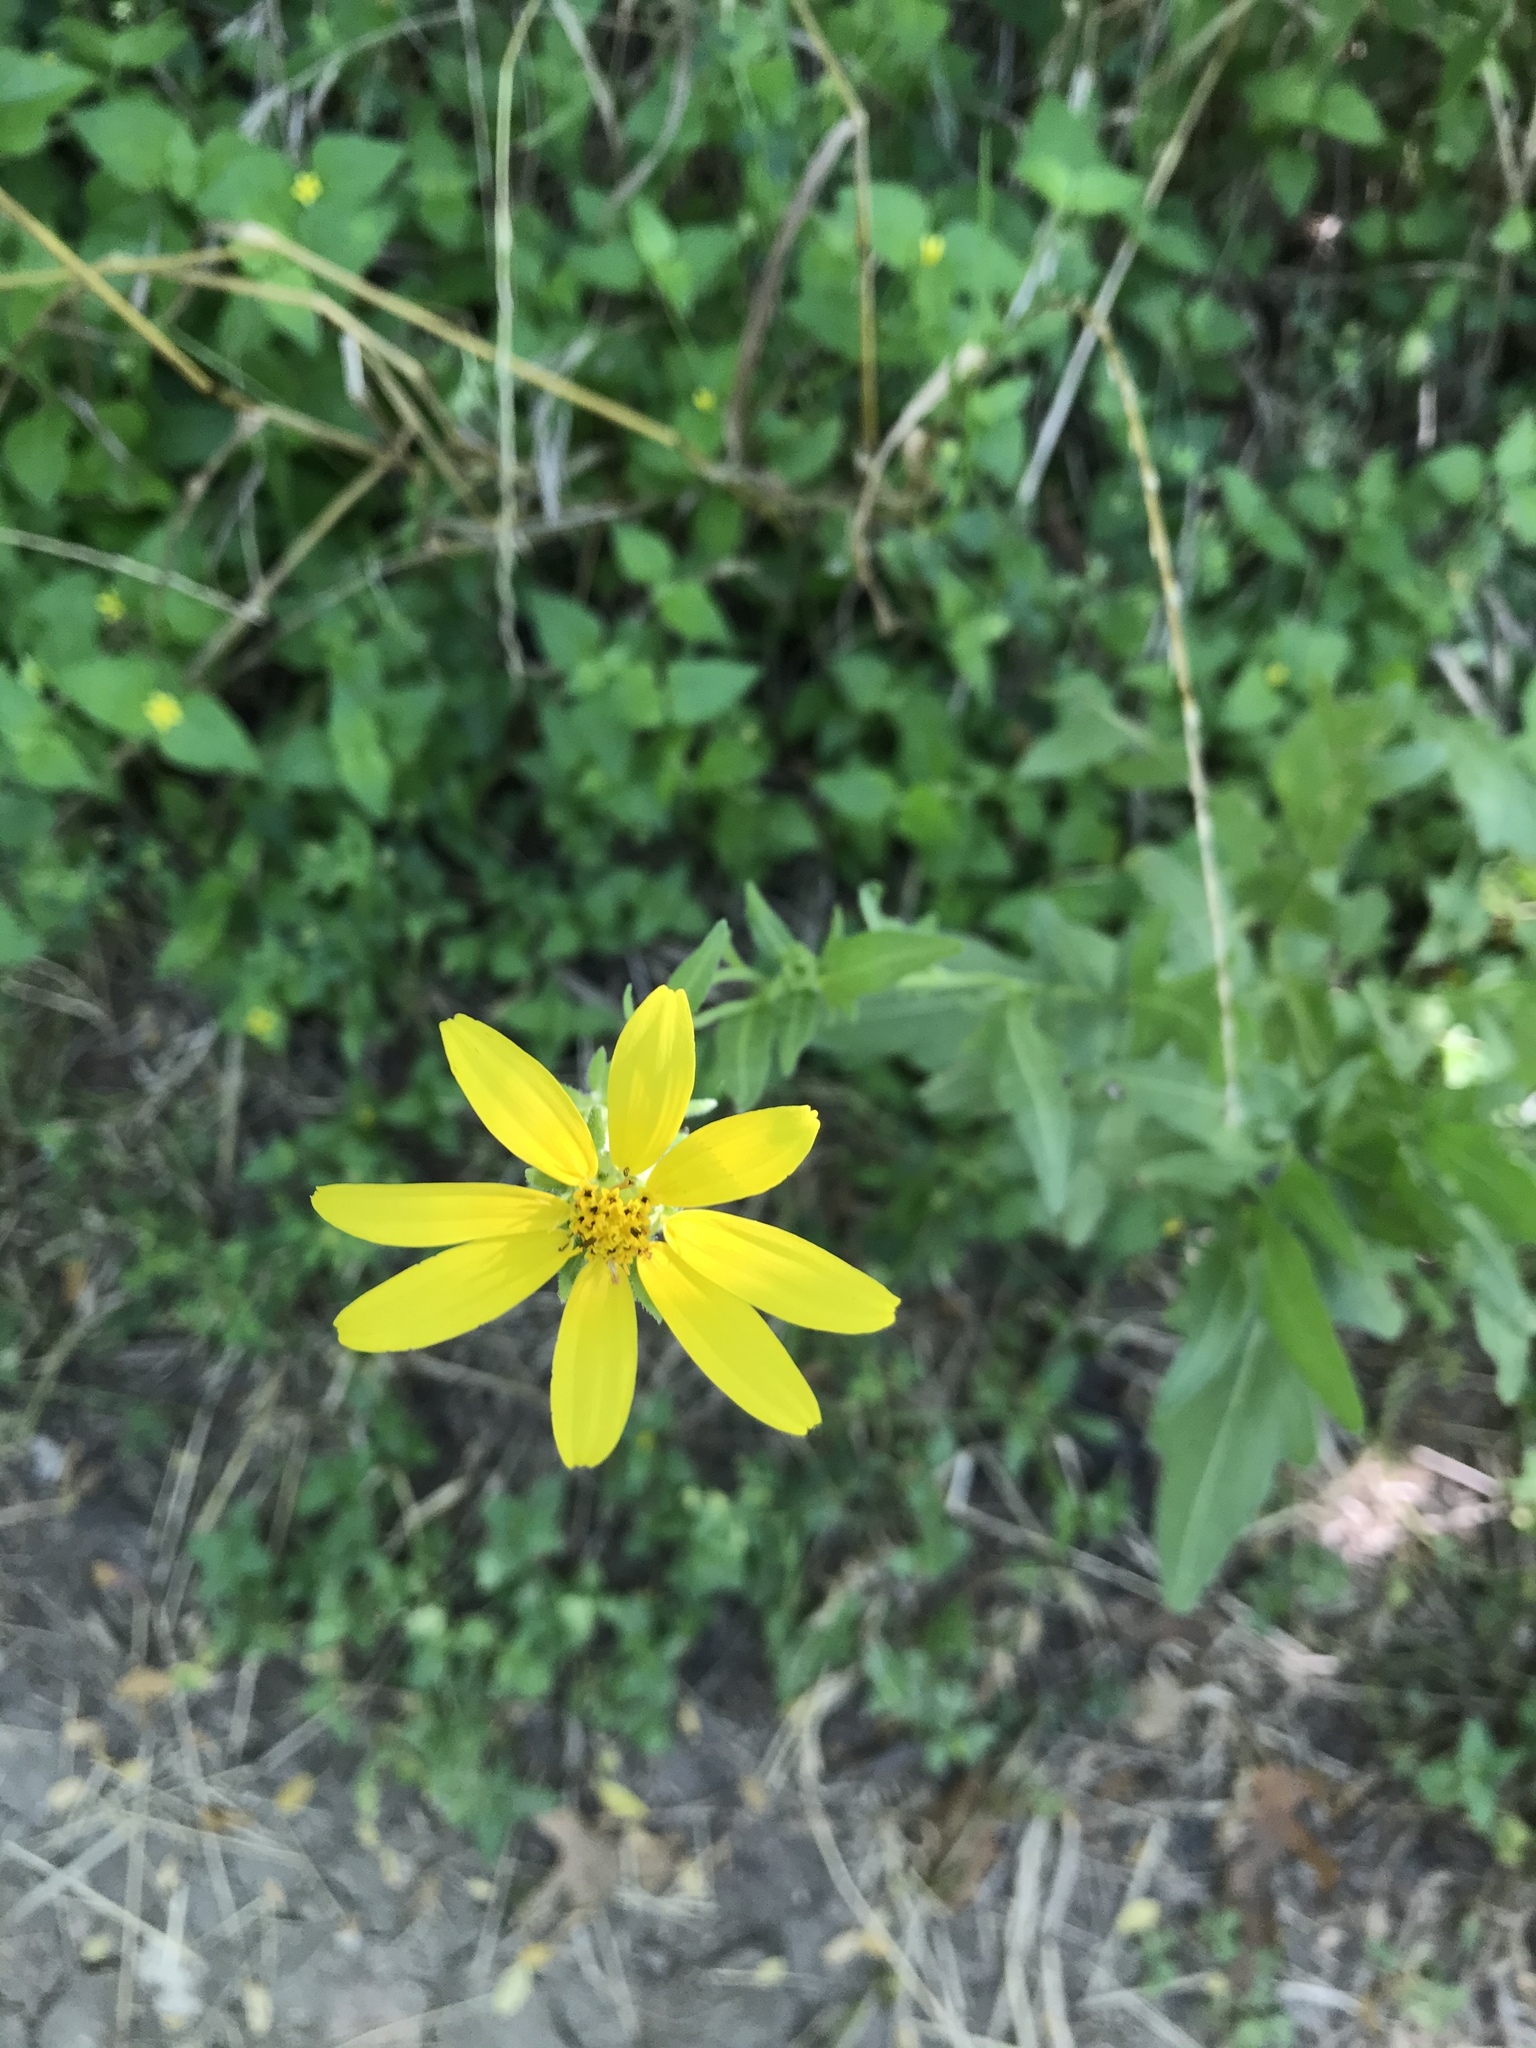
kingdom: Plantae
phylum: Tracheophyta
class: Magnoliopsida
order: Asterales
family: Asteraceae
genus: Engelmannia
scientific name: Engelmannia peristenia
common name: Engelmann's daisy
